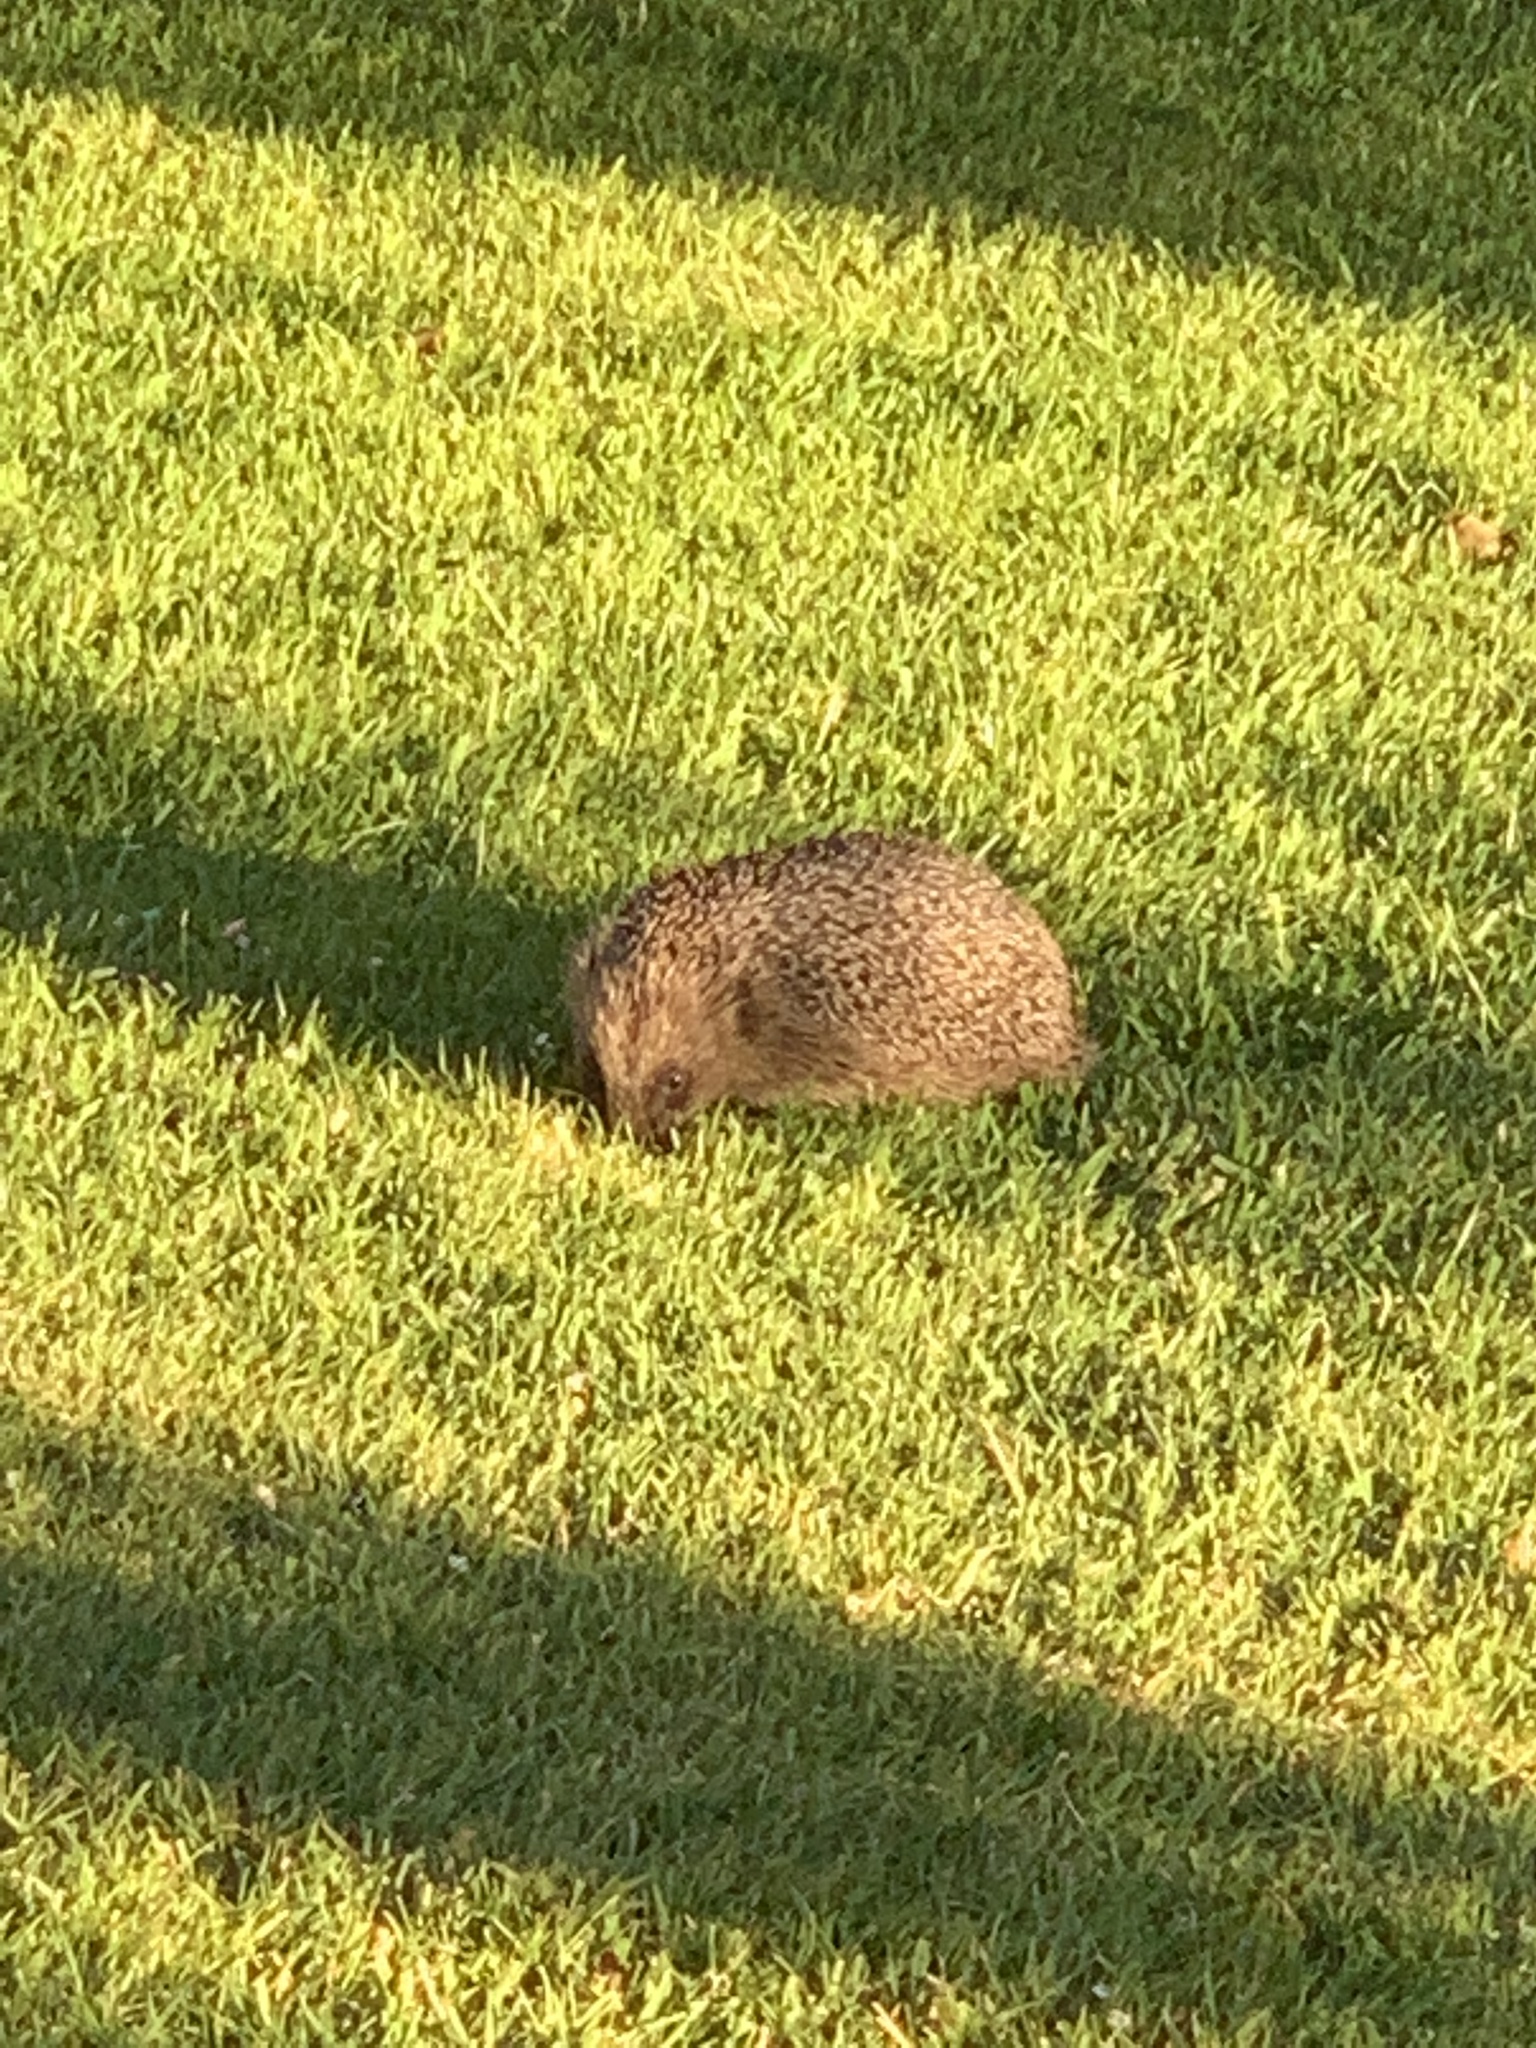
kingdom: Animalia
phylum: Chordata
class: Mammalia
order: Erinaceomorpha
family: Erinaceidae
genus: Erinaceus
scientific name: Erinaceus europaeus
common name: West european hedgehog
